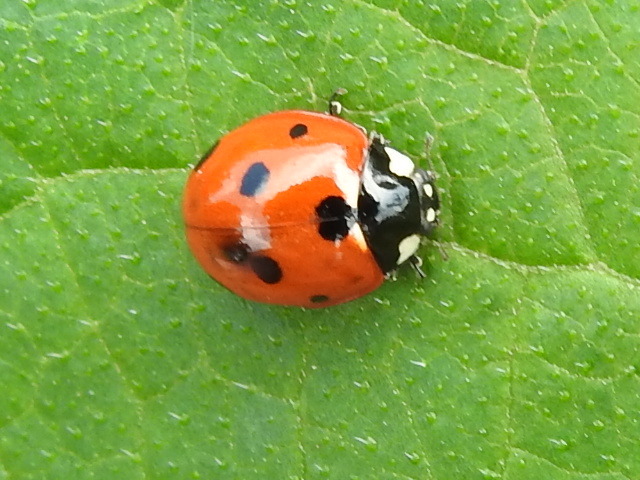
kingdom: Animalia
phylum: Arthropoda
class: Insecta
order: Coleoptera
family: Coccinellidae
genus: Coccinella
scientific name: Coccinella septempunctata
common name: Sevenspotted lady beetle
